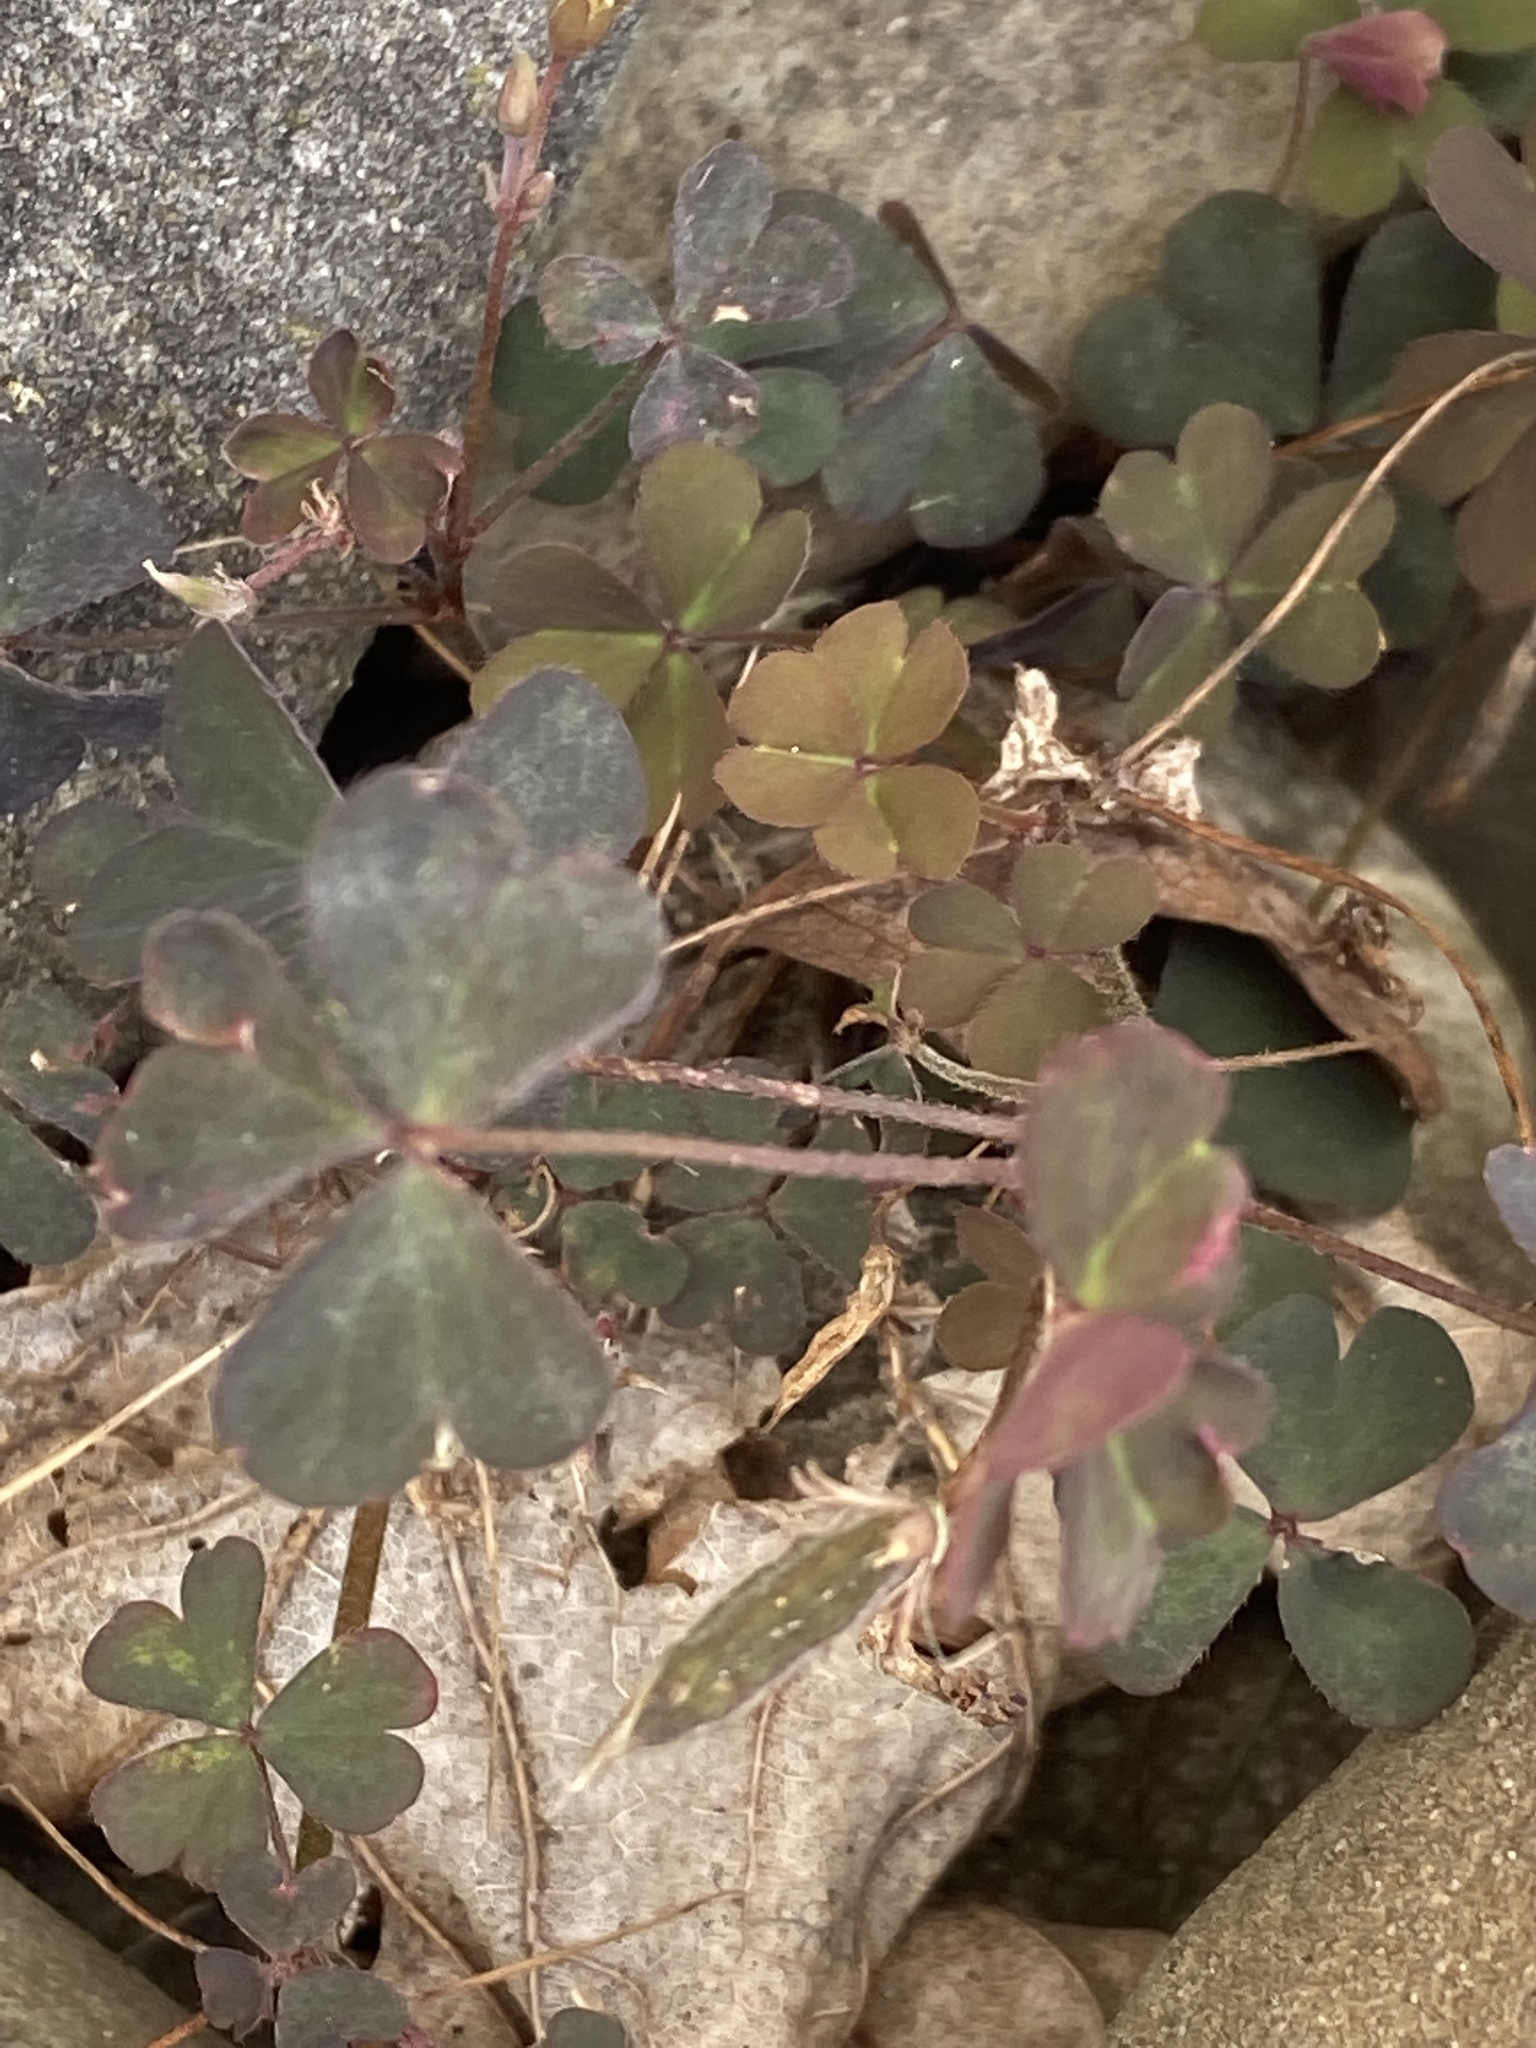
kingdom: Plantae
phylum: Tracheophyta
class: Magnoliopsida
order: Oxalidales
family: Oxalidaceae
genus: Oxalis
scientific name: Oxalis corniculata
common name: Procumbent yellow-sorrel
